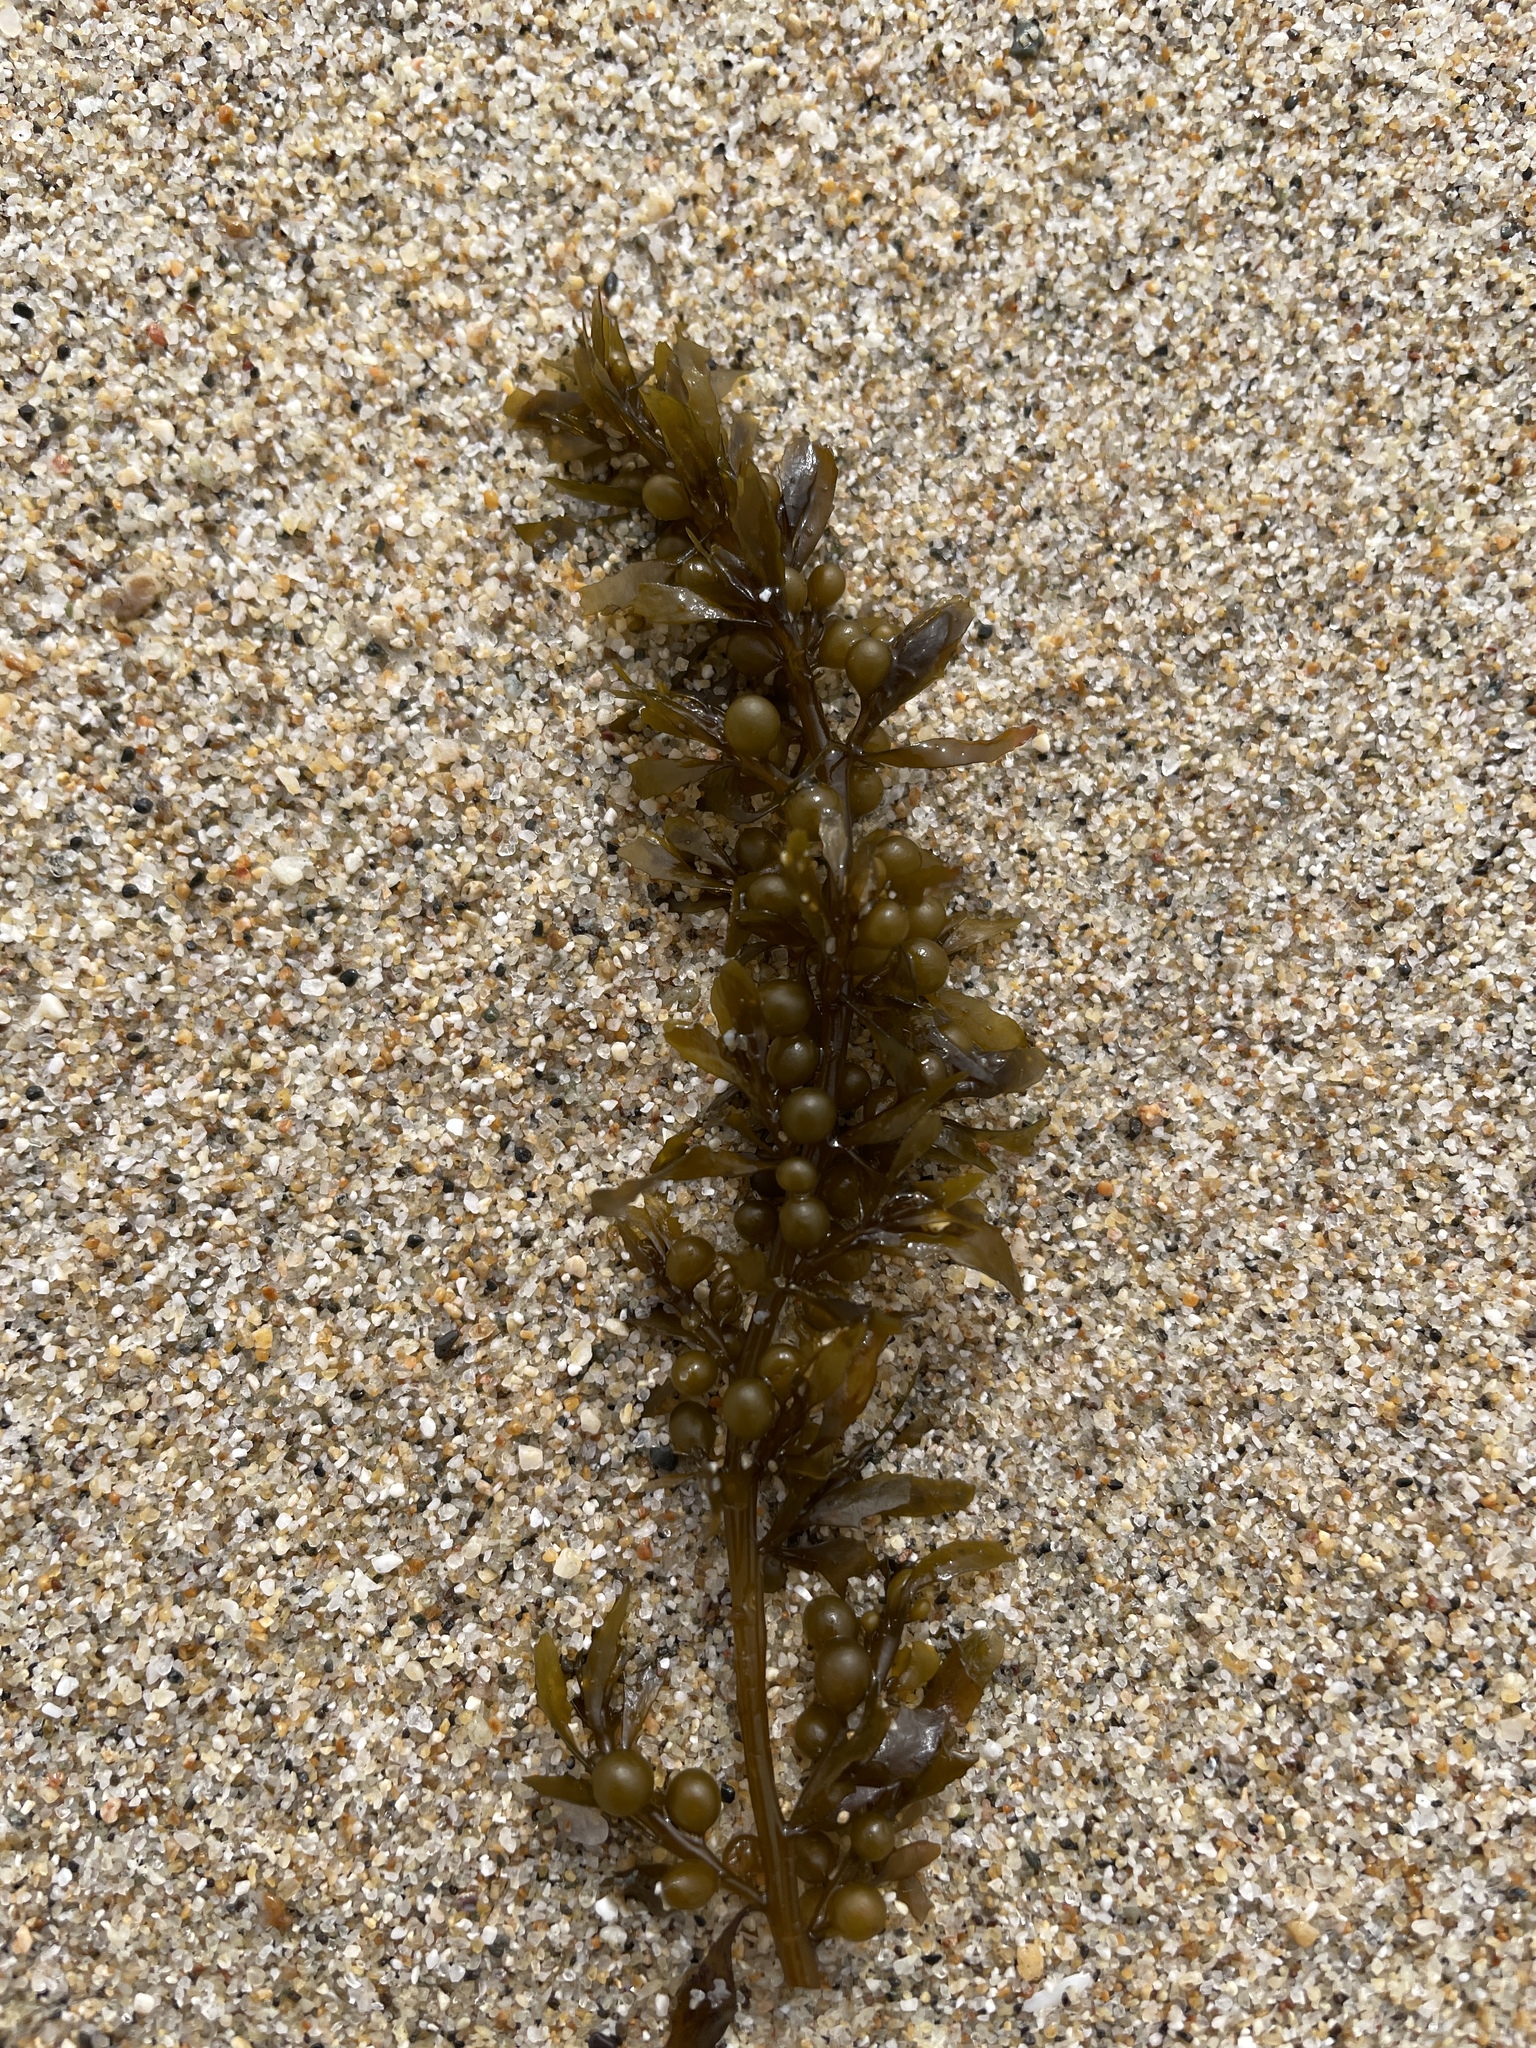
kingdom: Chromista
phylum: Ochrophyta
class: Phaeophyceae
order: Fucales
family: Sargassaceae
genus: Sargassum
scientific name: Sargassum muticum
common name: Japweed
